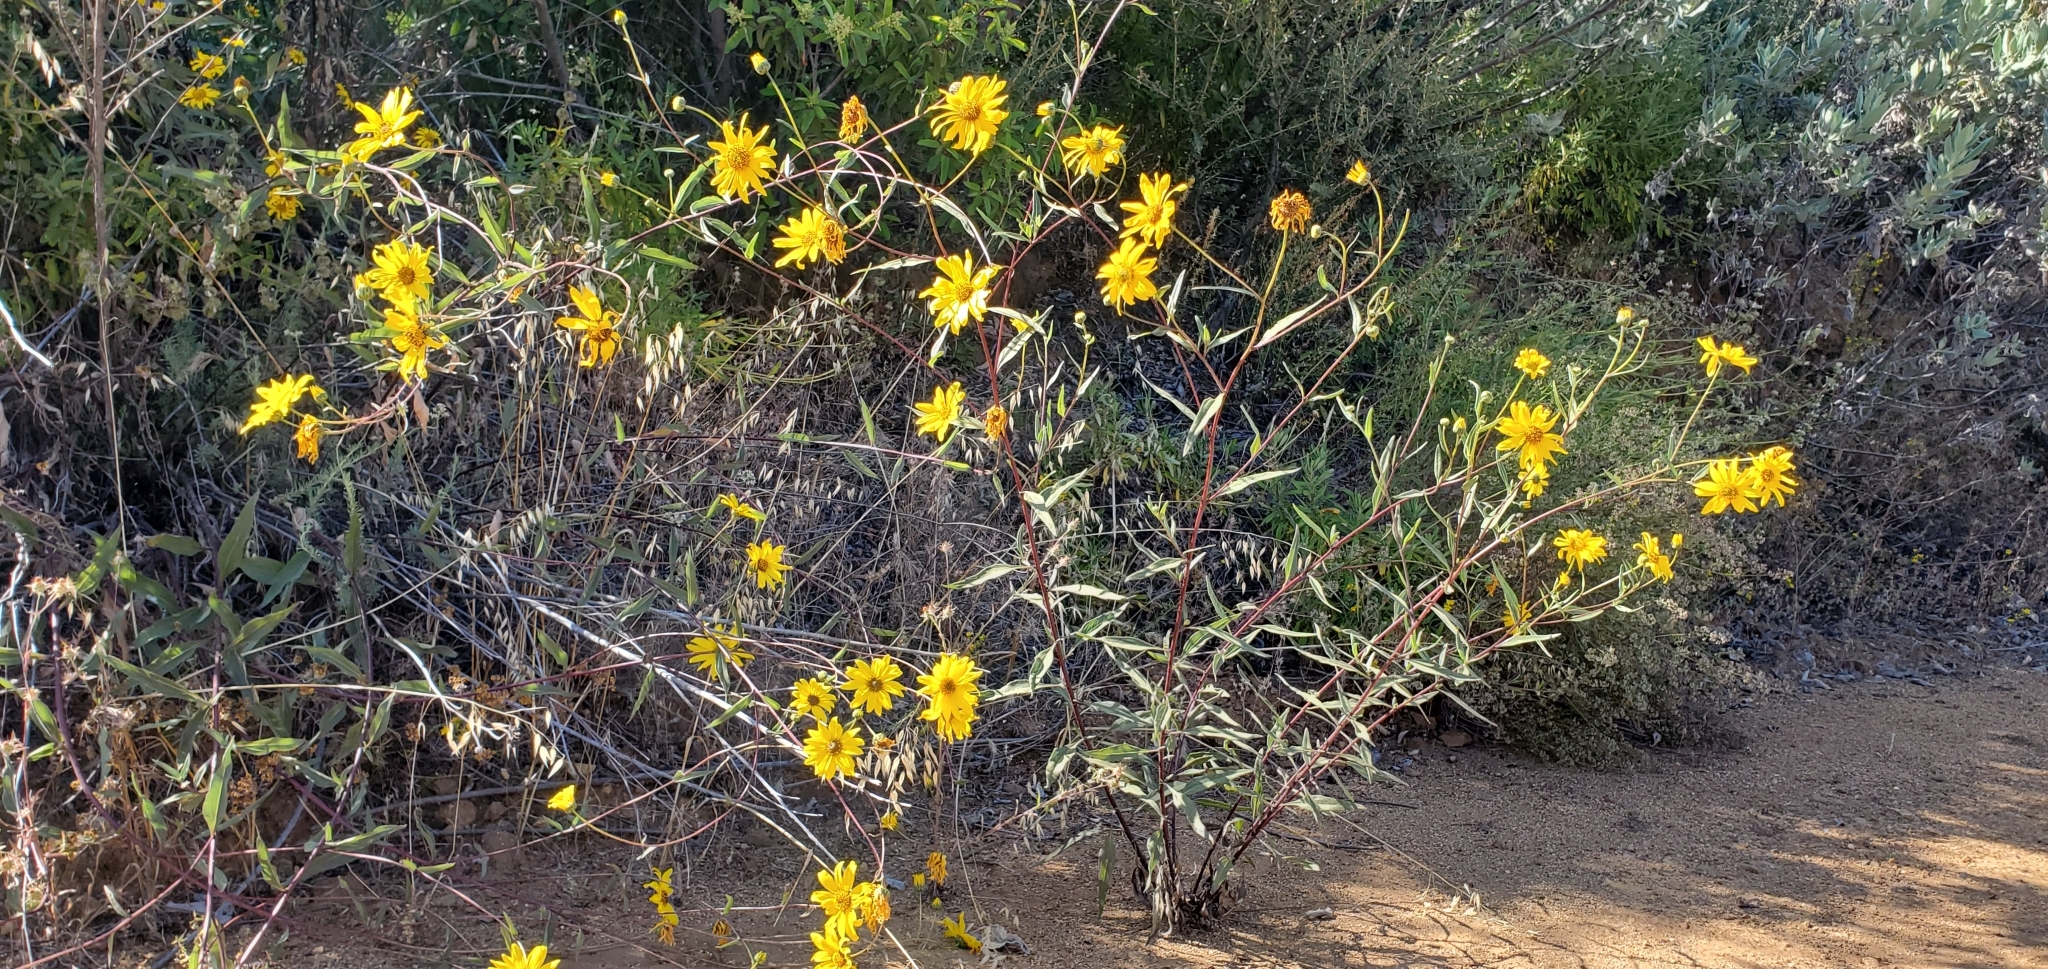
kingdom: Plantae
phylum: Tracheophyta
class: Magnoliopsida
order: Asterales
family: Asteraceae
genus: Helianthus
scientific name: Helianthus gracilentus
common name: Slender sunflower
